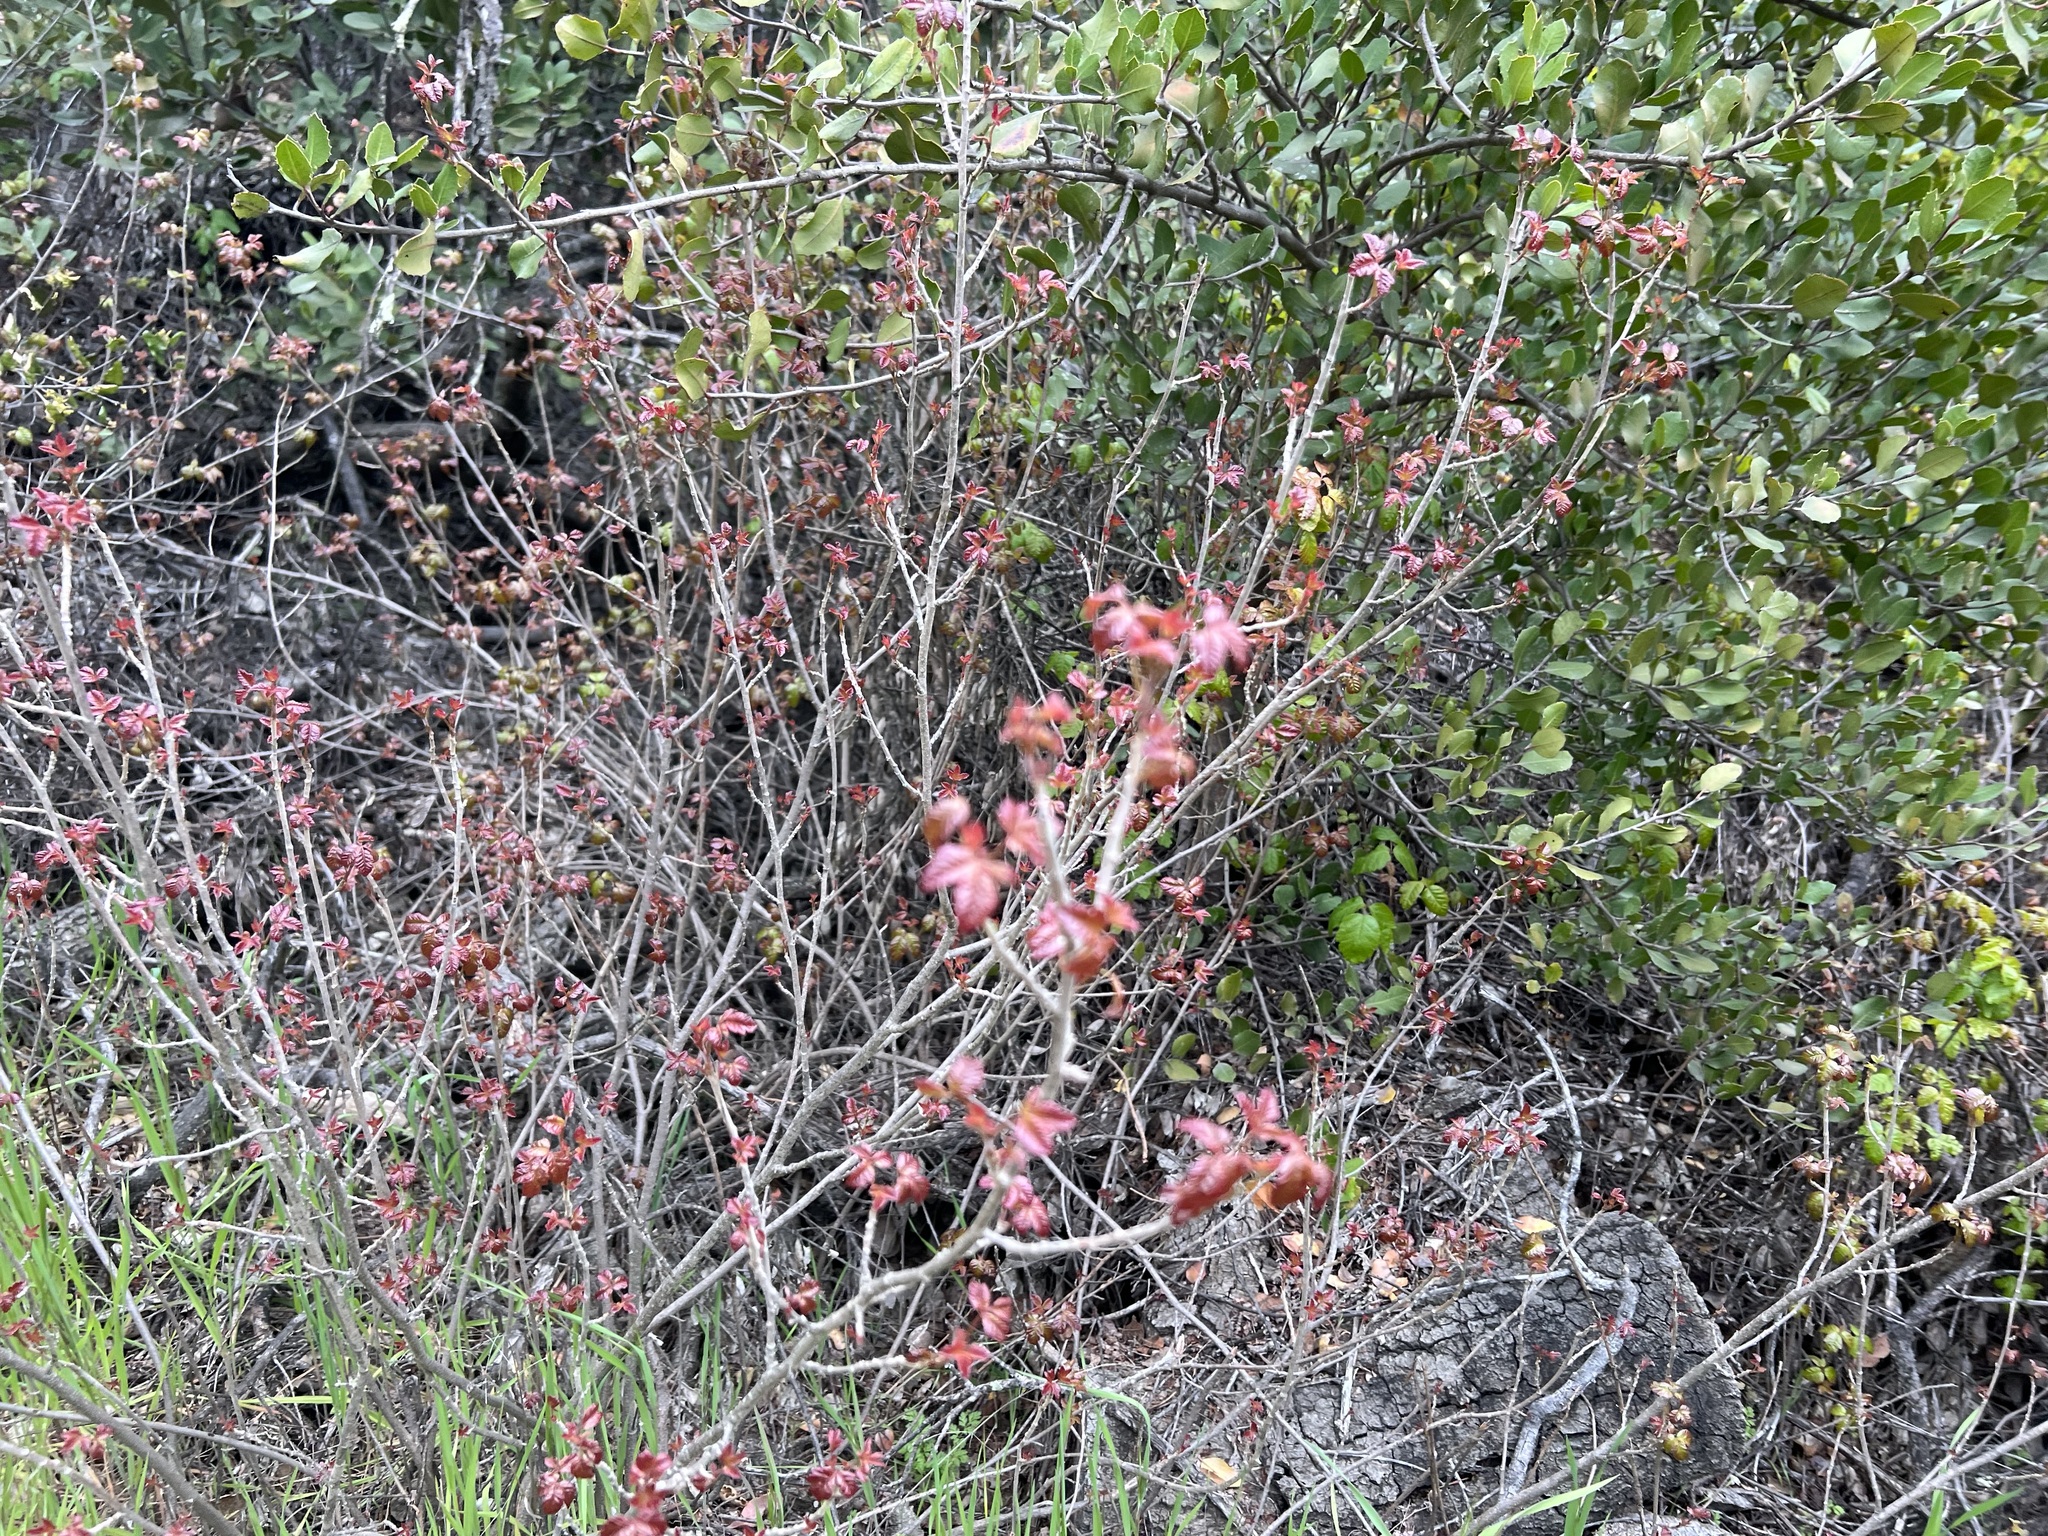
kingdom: Plantae
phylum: Tracheophyta
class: Magnoliopsida
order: Sapindales
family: Anacardiaceae
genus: Toxicodendron
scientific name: Toxicodendron diversilobum
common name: Pacific poison-oak
